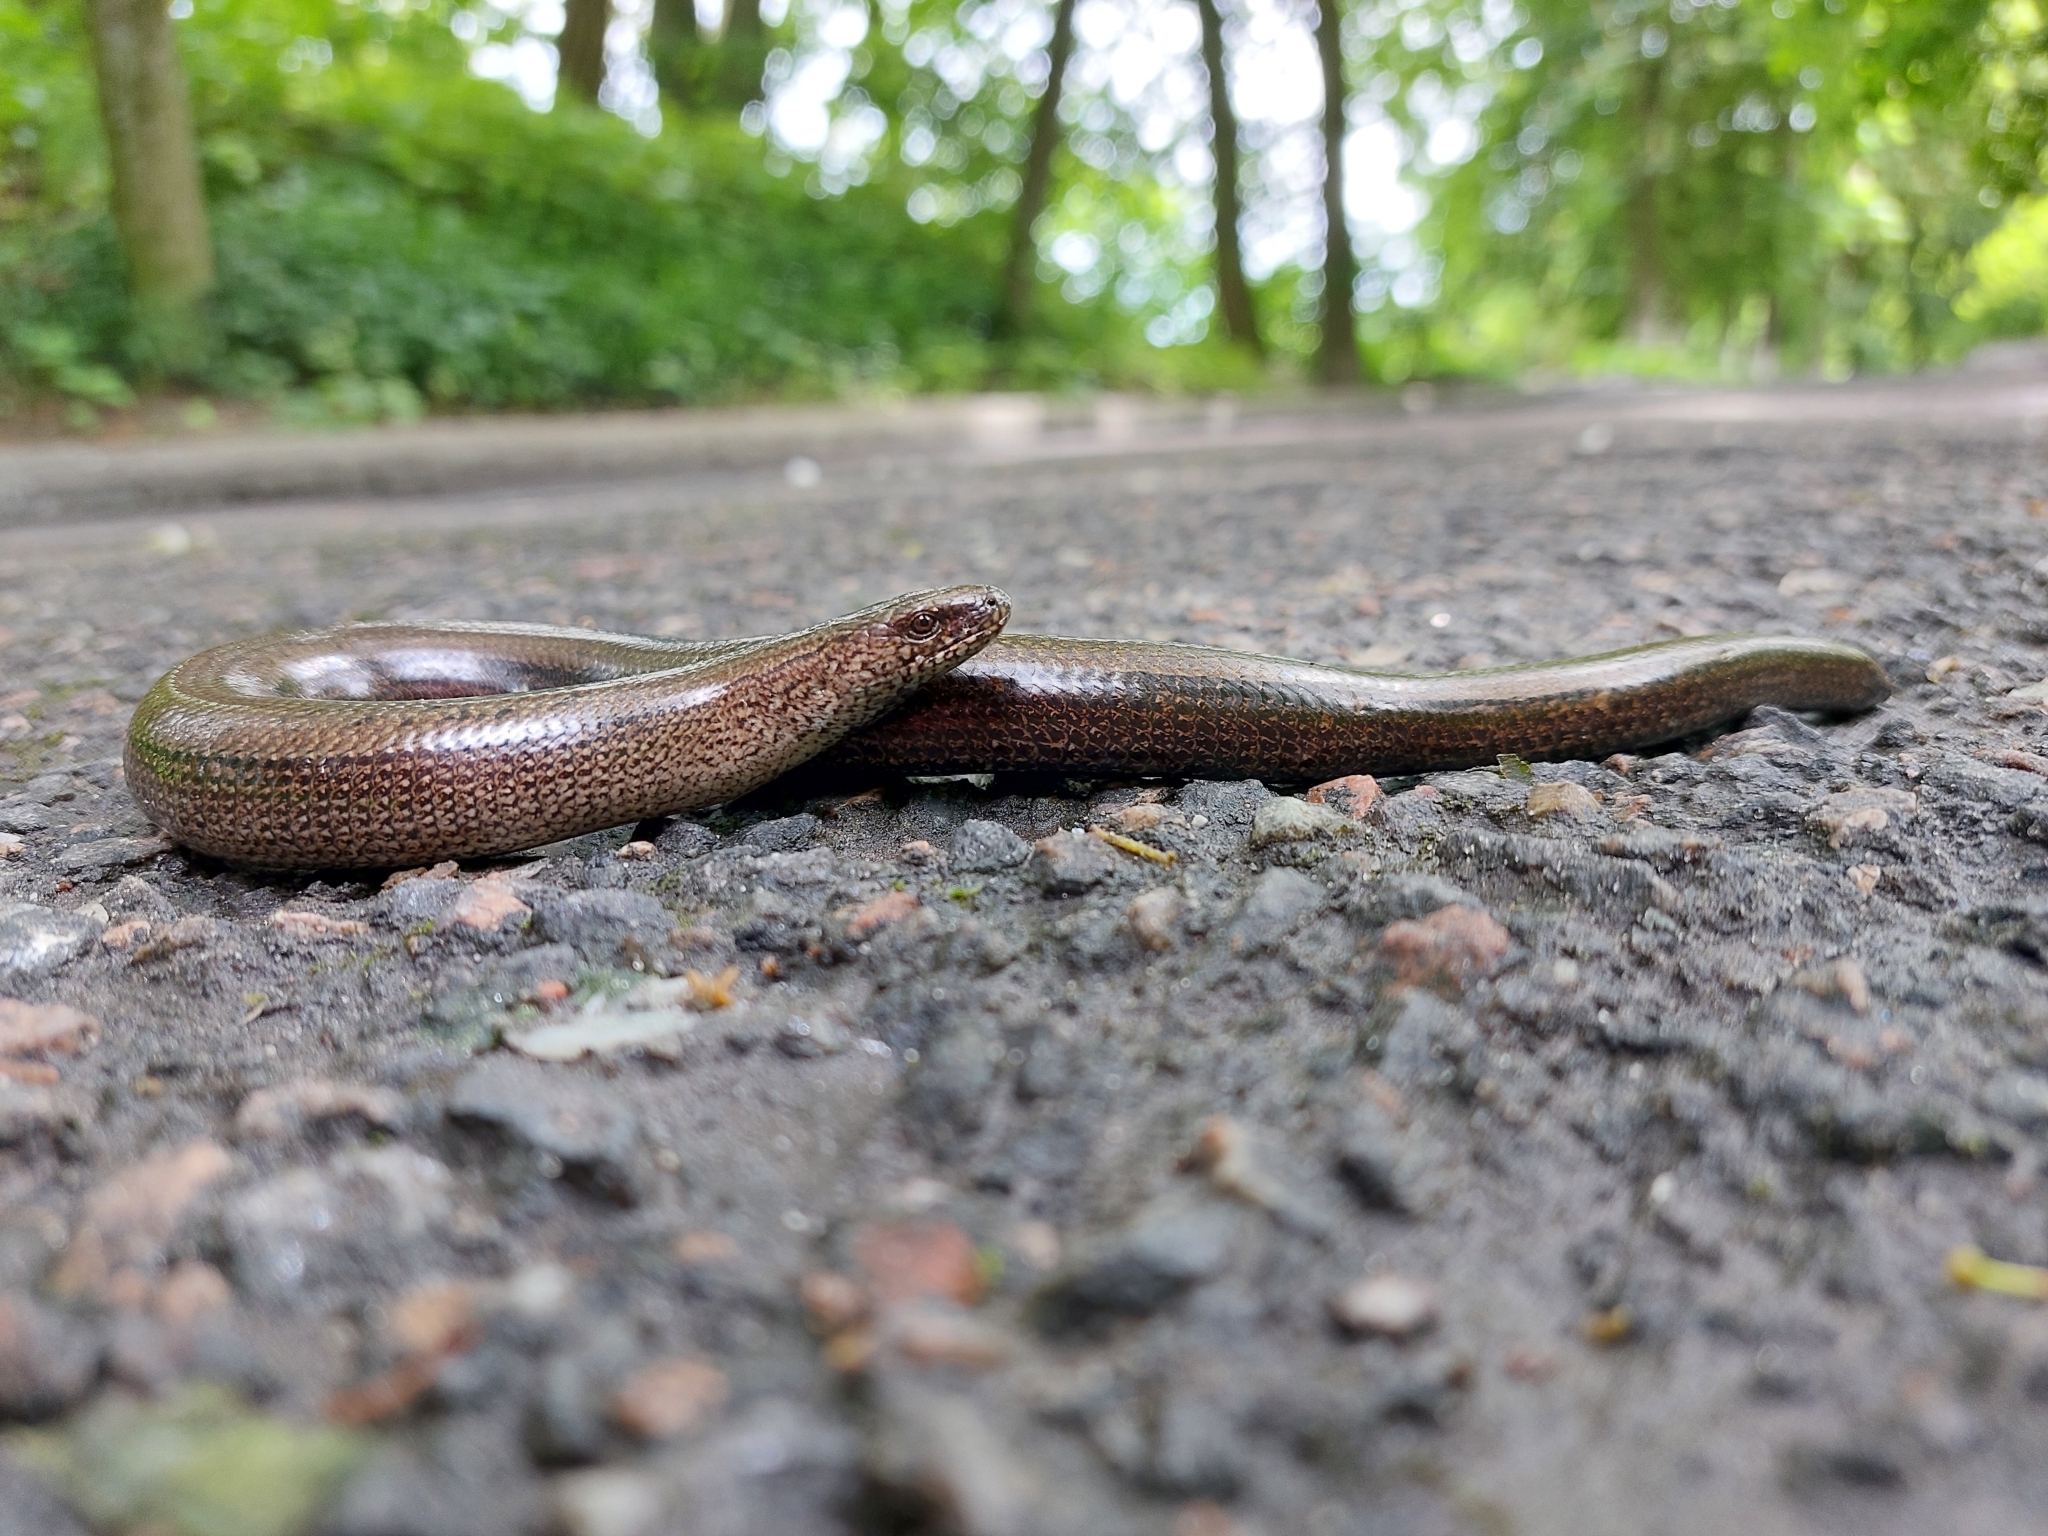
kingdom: Animalia
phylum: Chordata
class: Squamata
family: Anguidae
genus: Anguis
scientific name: Anguis colchica
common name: Slow worm
